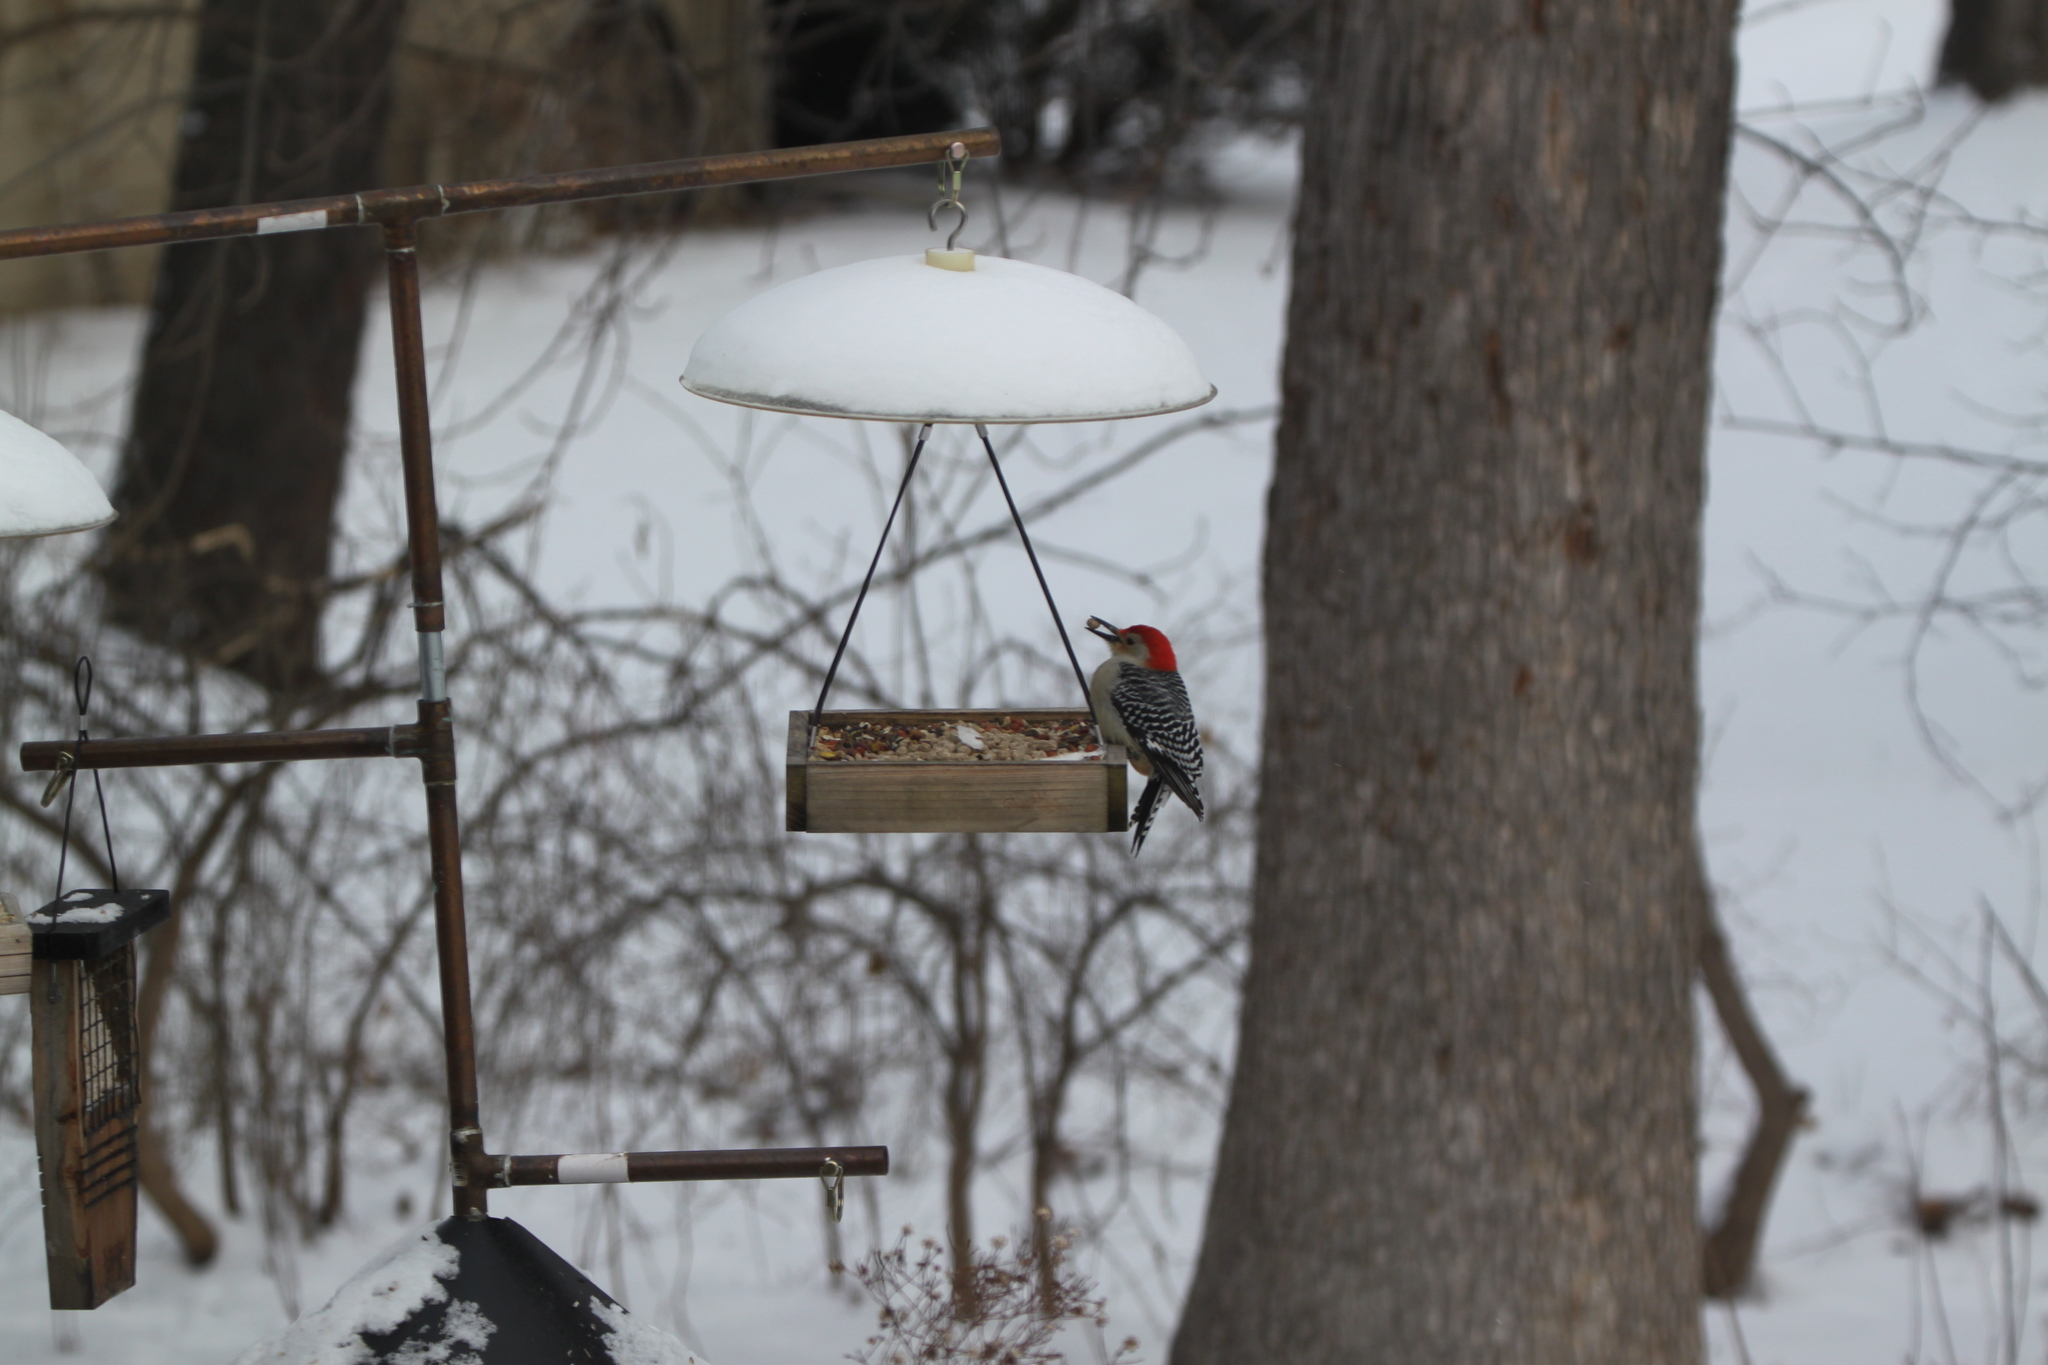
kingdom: Animalia
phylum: Chordata
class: Aves
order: Piciformes
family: Picidae
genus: Melanerpes
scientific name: Melanerpes carolinus
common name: Red-bellied woodpecker
